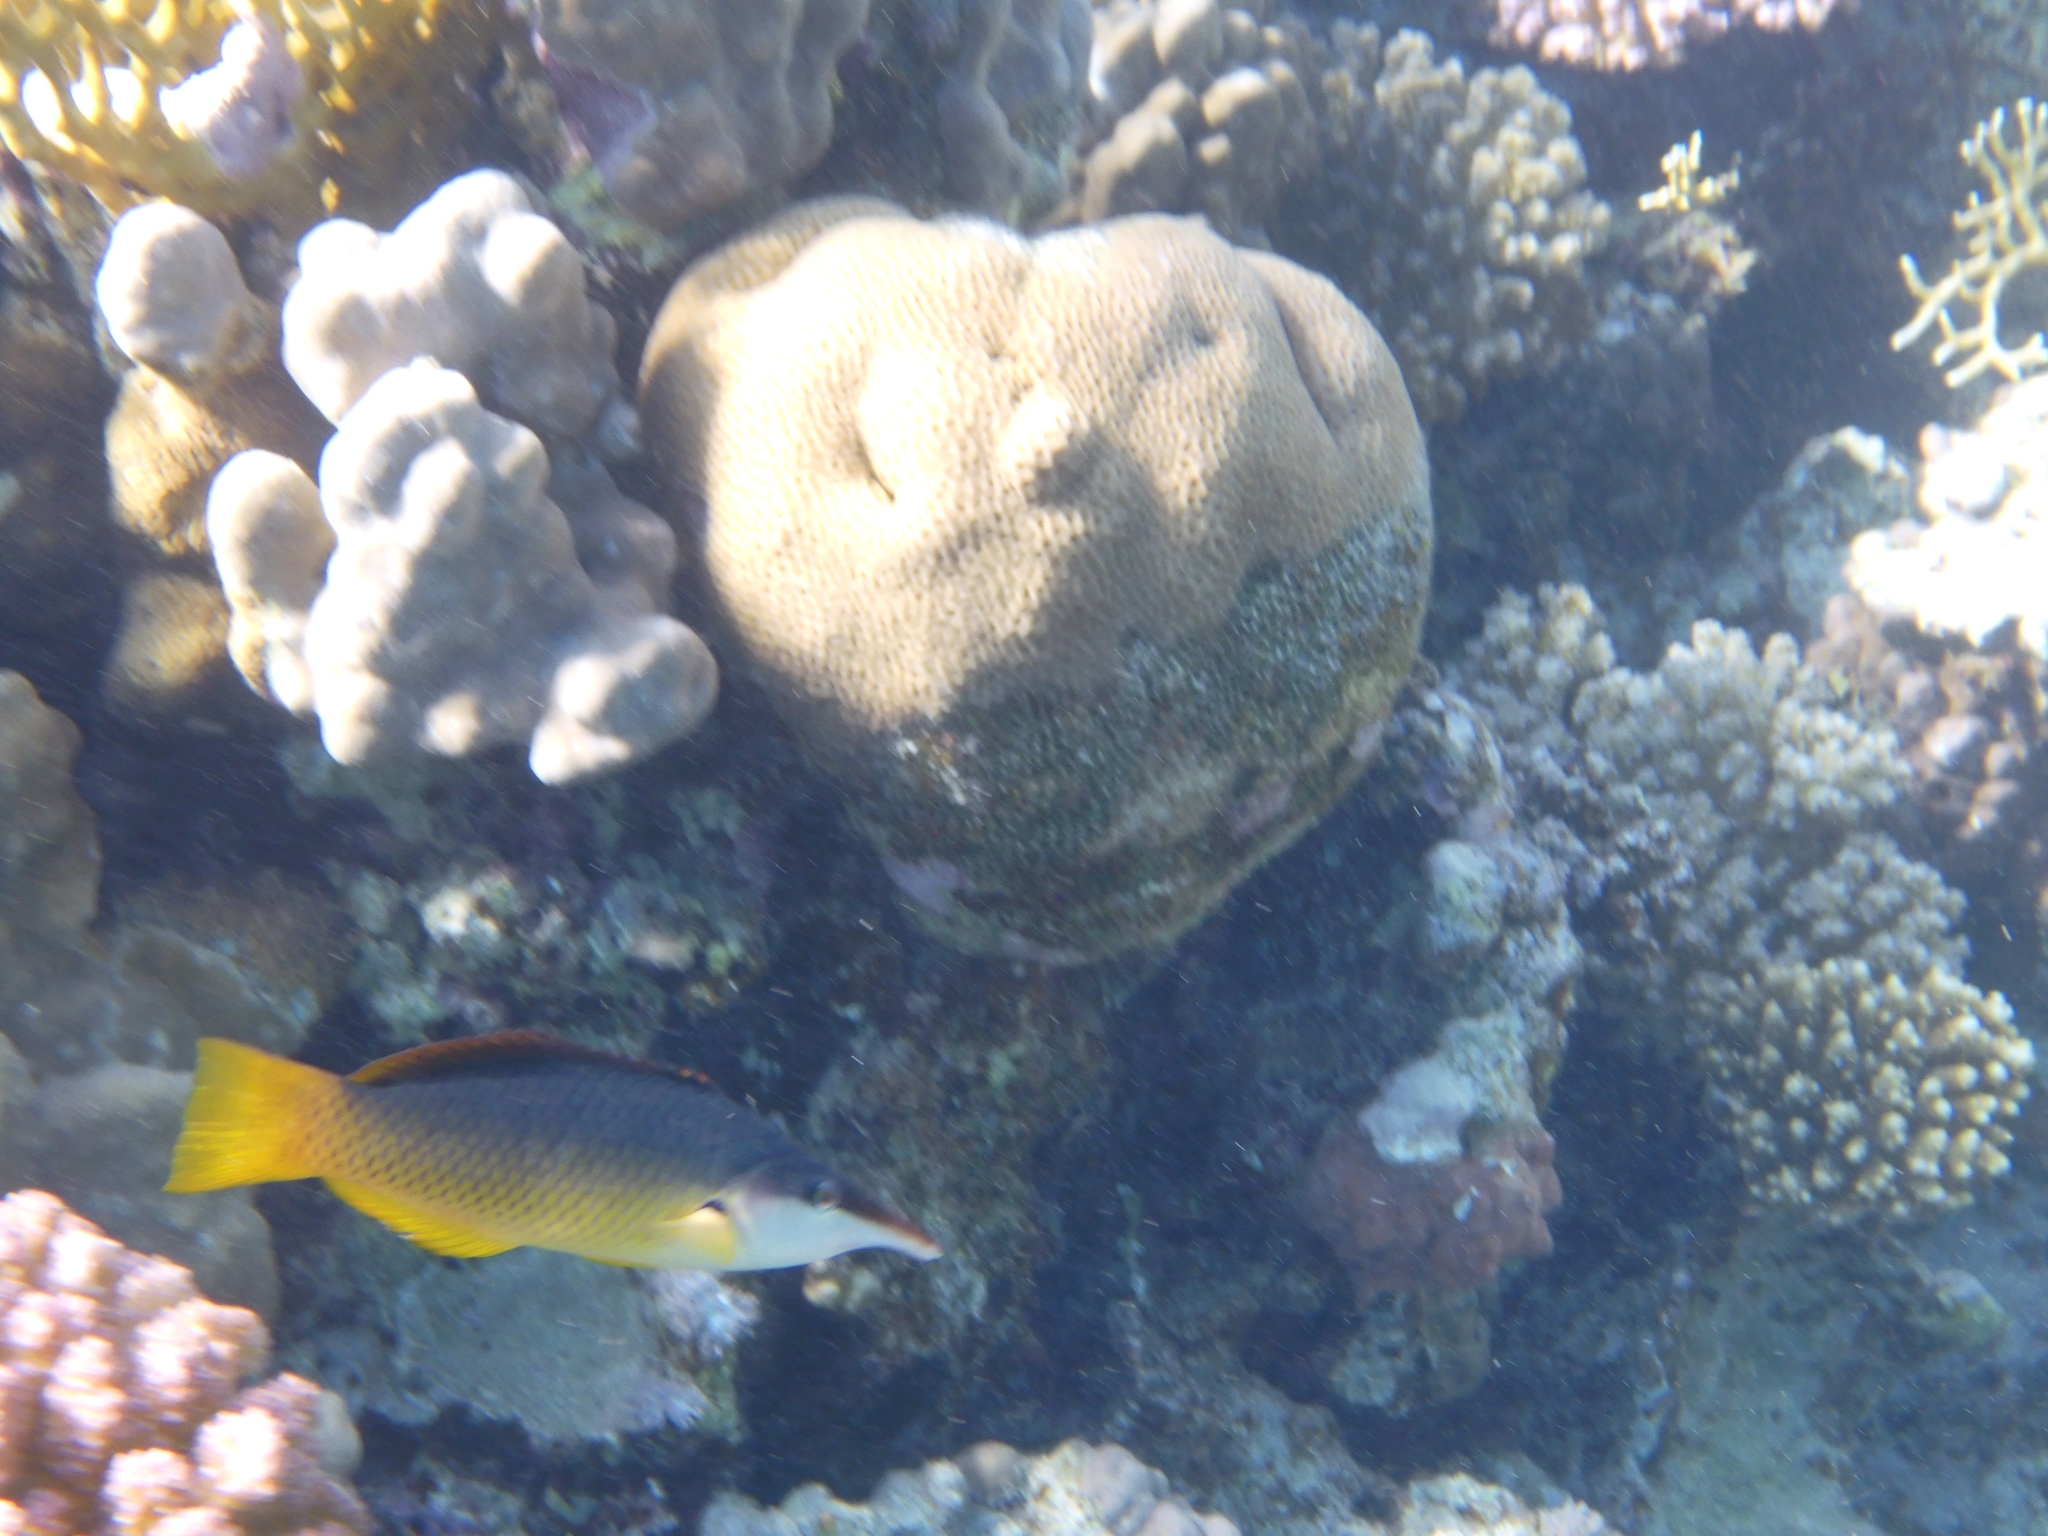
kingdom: Animalia
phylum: Chordata
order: Perciformes
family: Labridae
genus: Gomphosus
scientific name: Gomphosus klunzingeri
